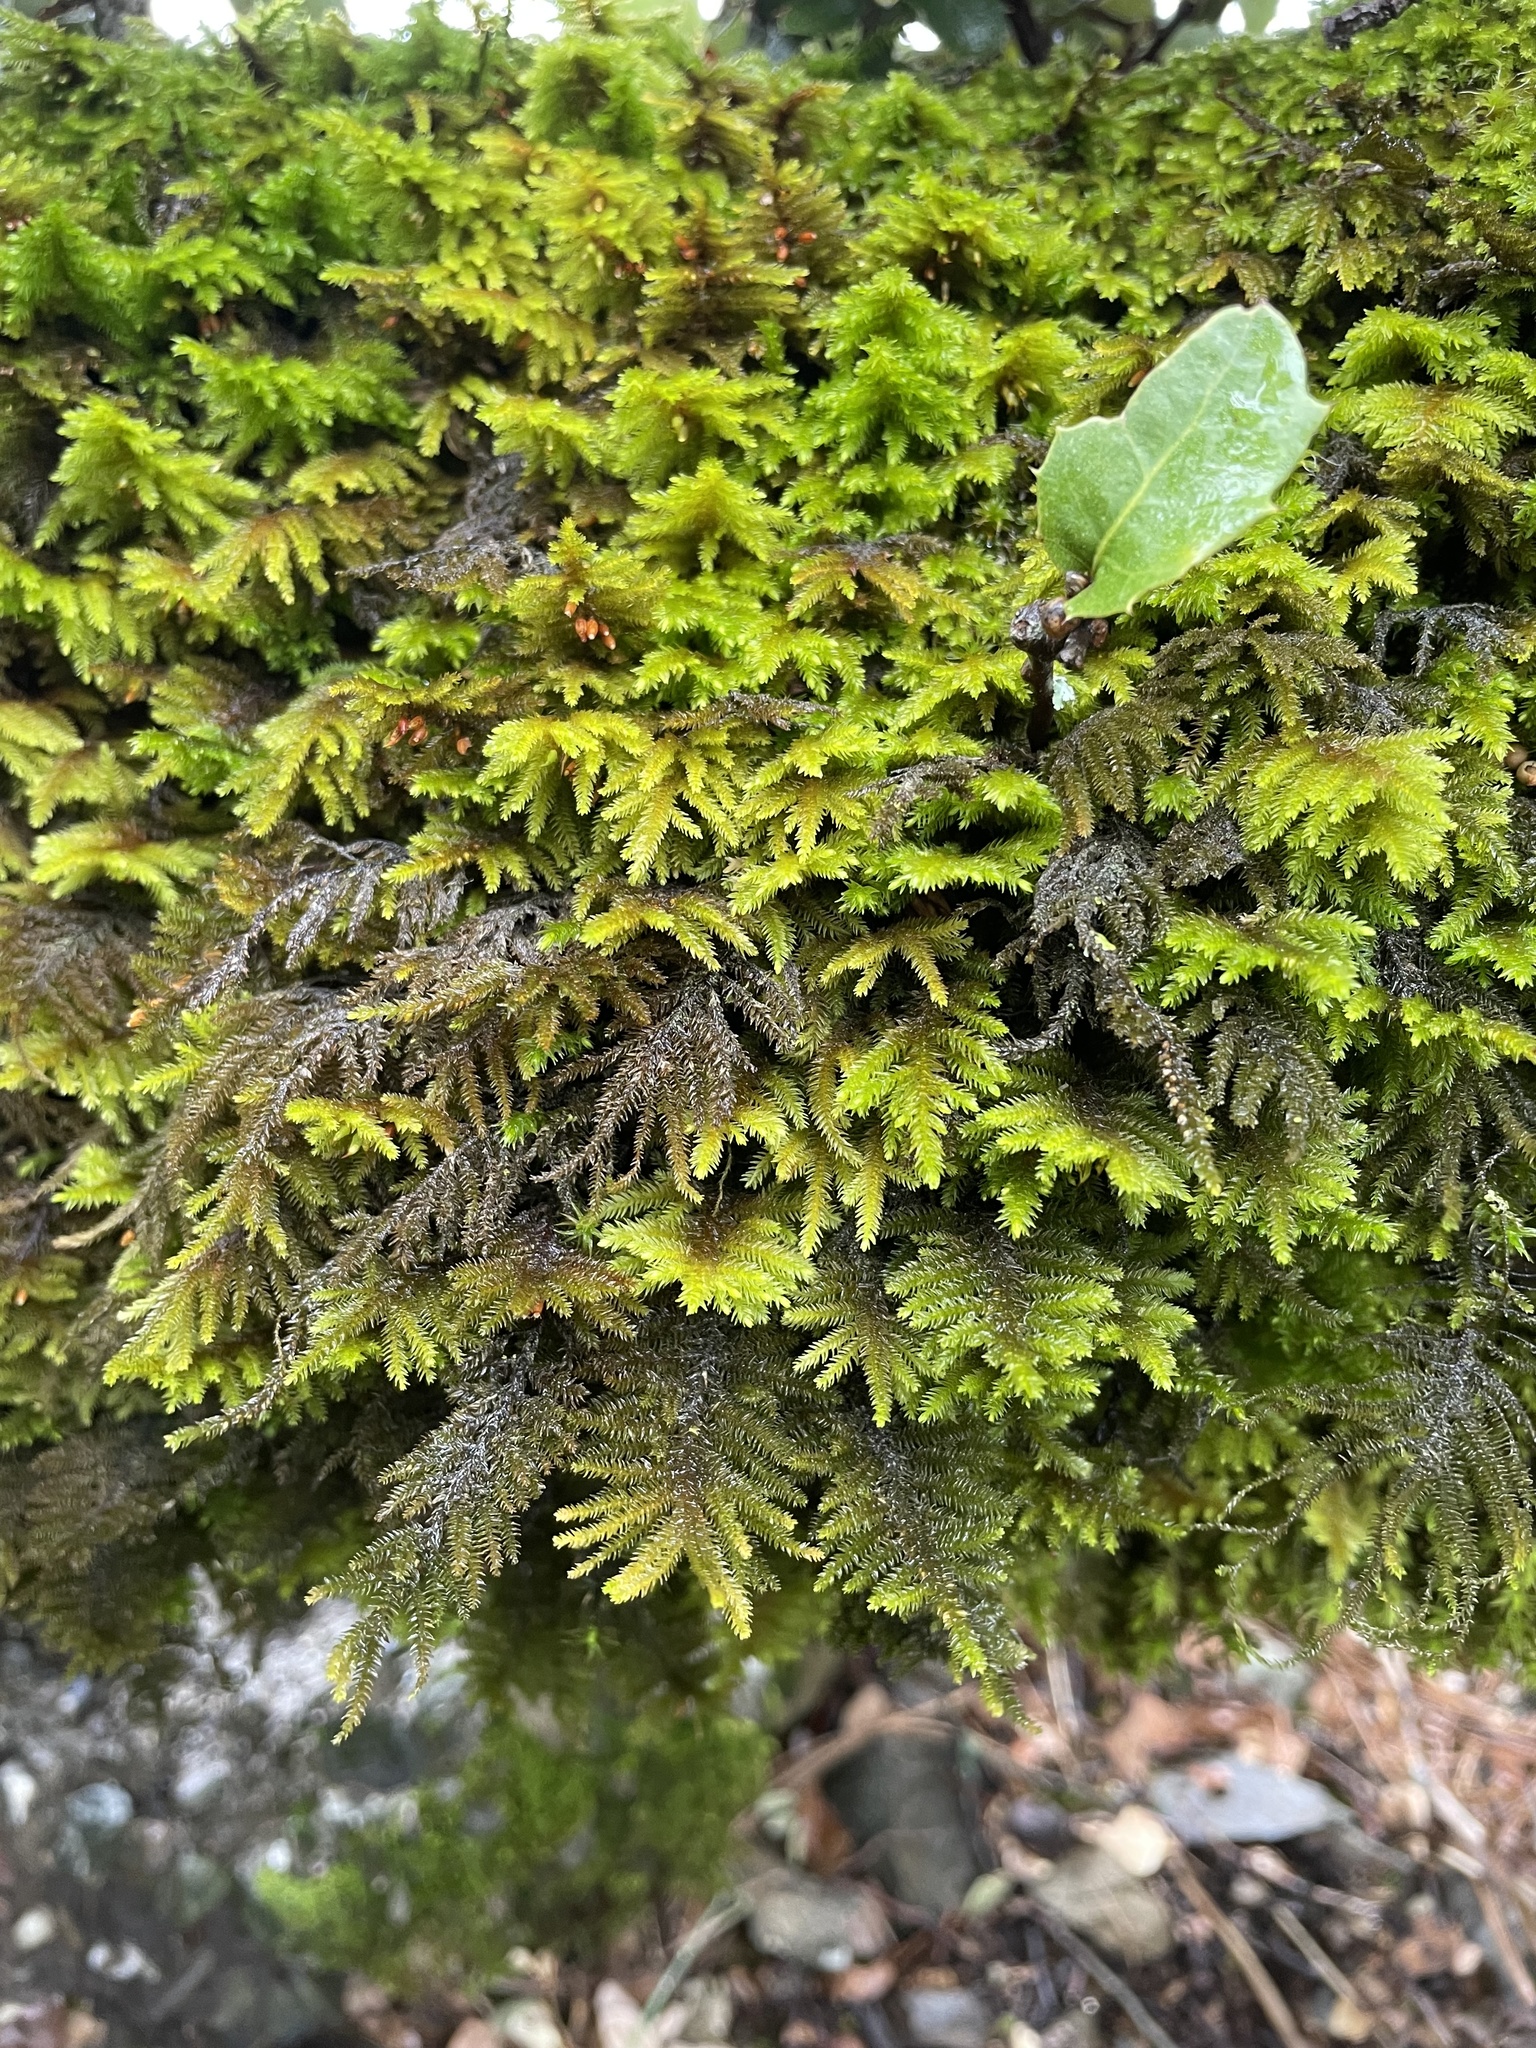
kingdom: Plantae
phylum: Bryophyta
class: Bryopsida
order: Hypnales
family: Cryphaeaceae
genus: Dendroalsia
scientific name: Dendroalsia abietina
